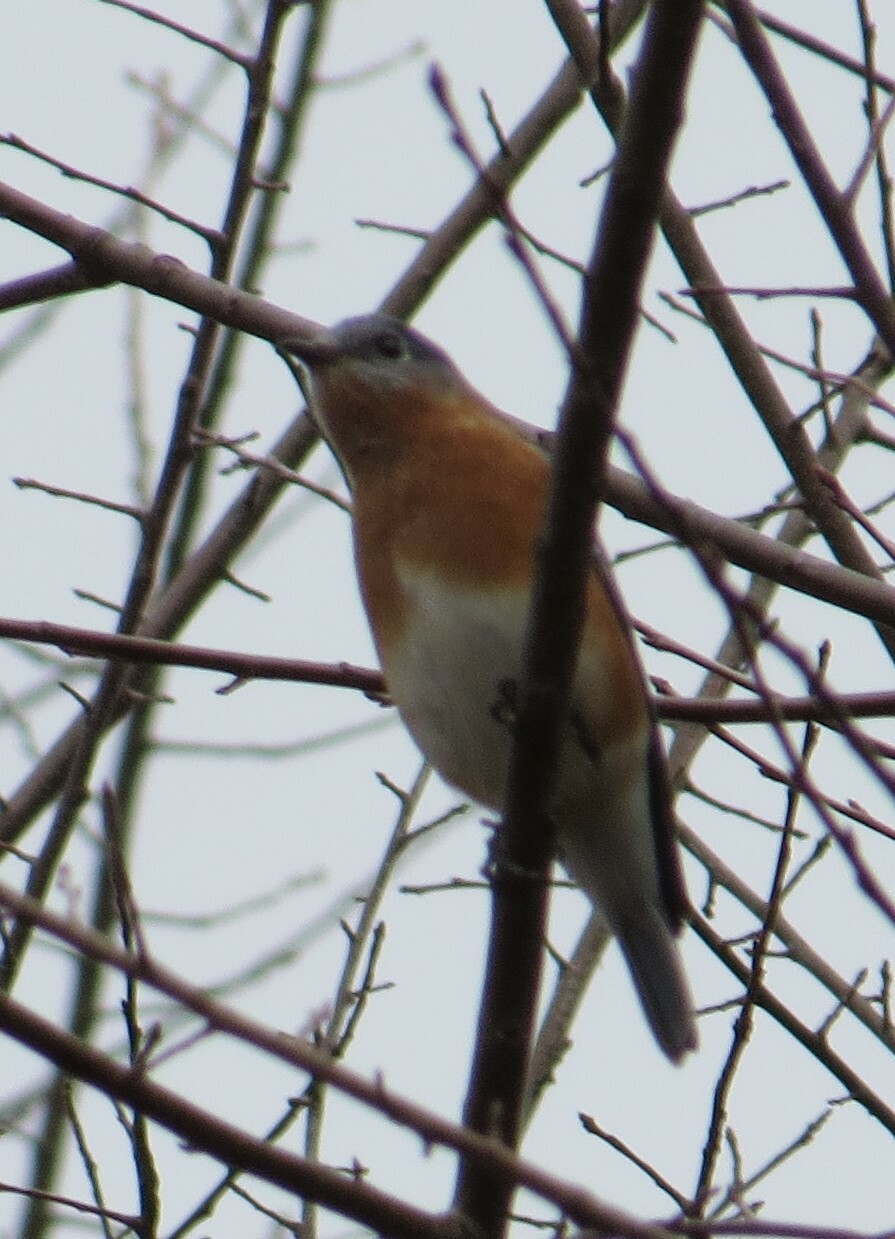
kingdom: Animalia
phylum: Chordata
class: Aves
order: Passeriformes
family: Turdidae
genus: Sialia
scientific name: Sialia sialis
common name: Eastern bluebird
